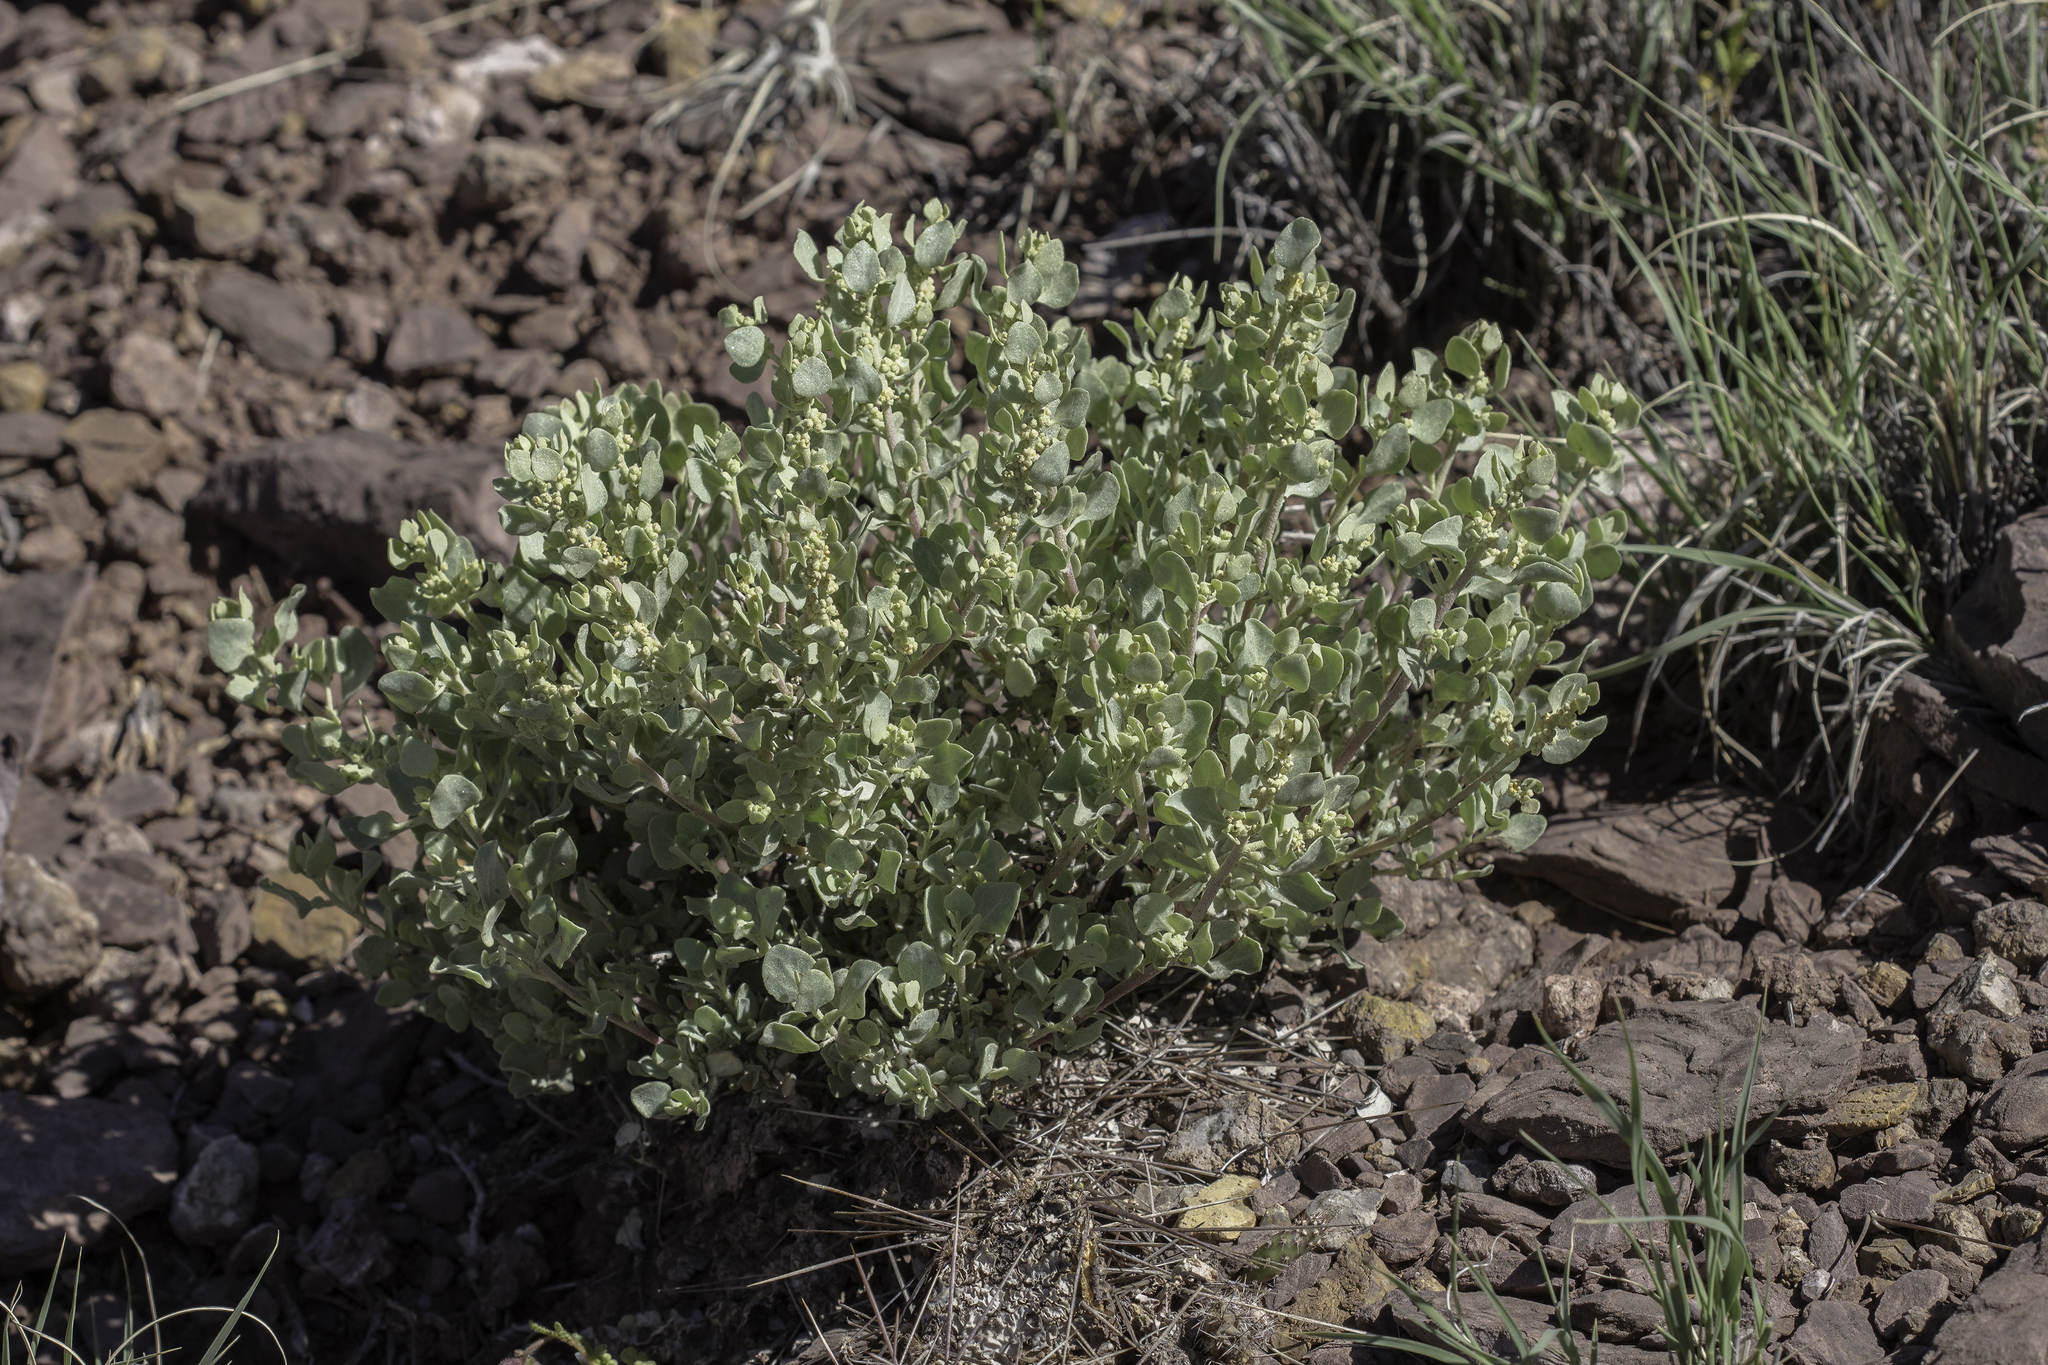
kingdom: Plantae
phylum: Tracheophyta
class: Magnoliopsida
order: Caryophyllales
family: Amaranthaceae
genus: Atriplex
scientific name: Atriplex confertifolia
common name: Shadscale
